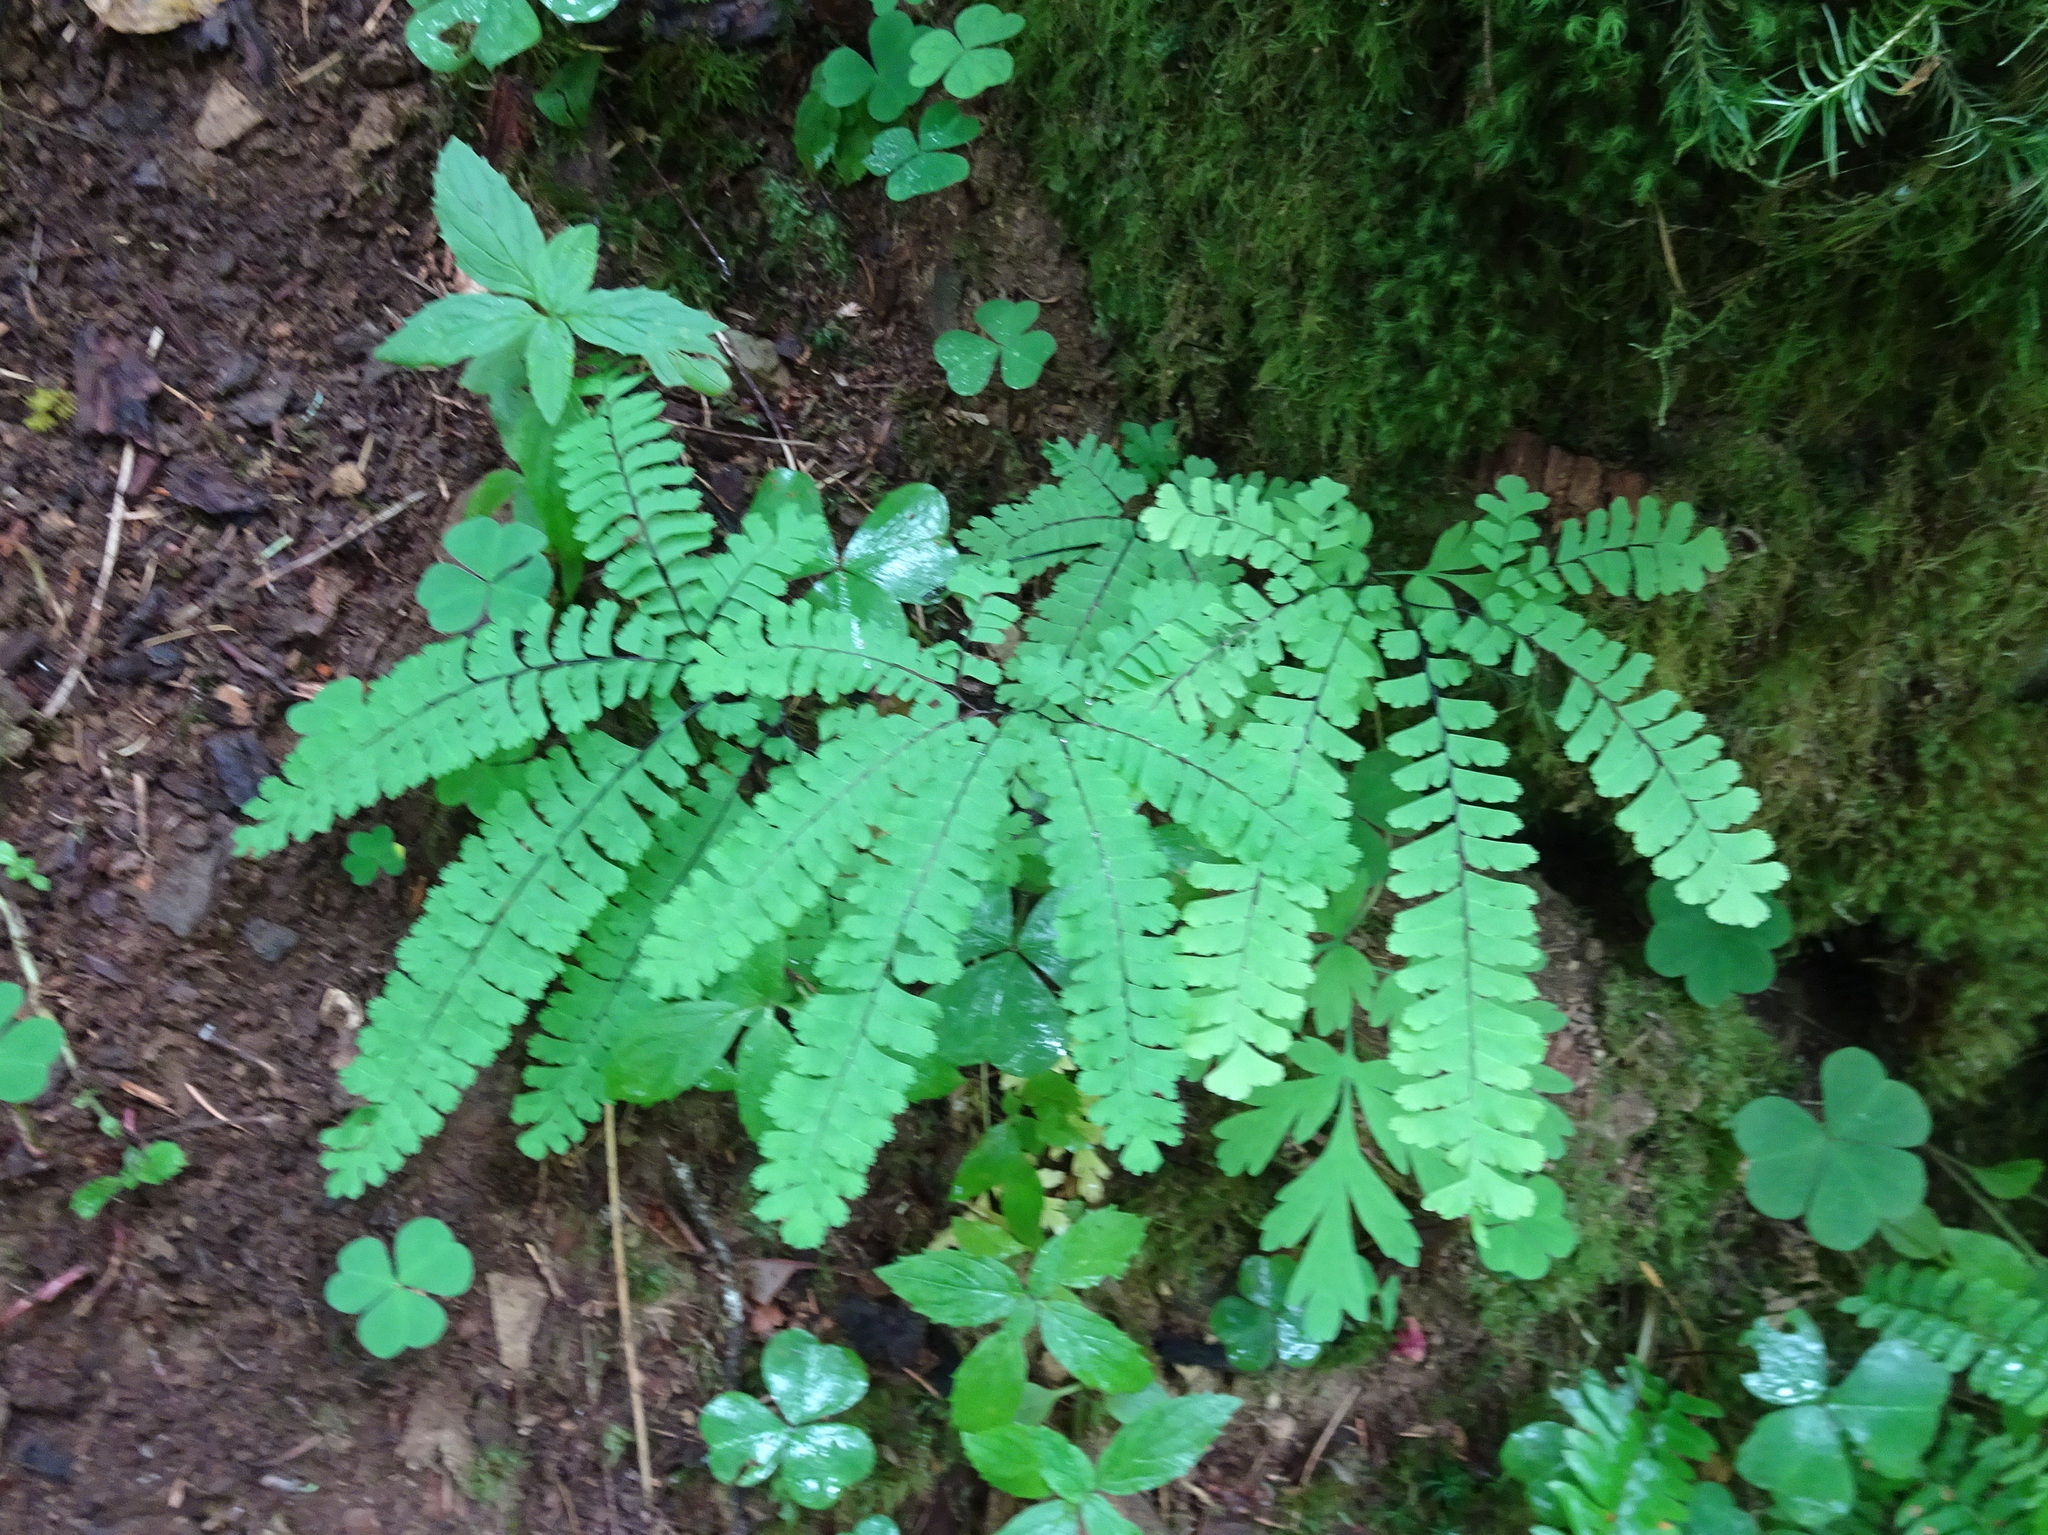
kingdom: Plantae
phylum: Tracheophyta
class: Polypodiopsida
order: Polypodiales
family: Pteridaceae
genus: Adiantum
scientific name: Adiantum aleuticum
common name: Aleutian maidenhair fern
